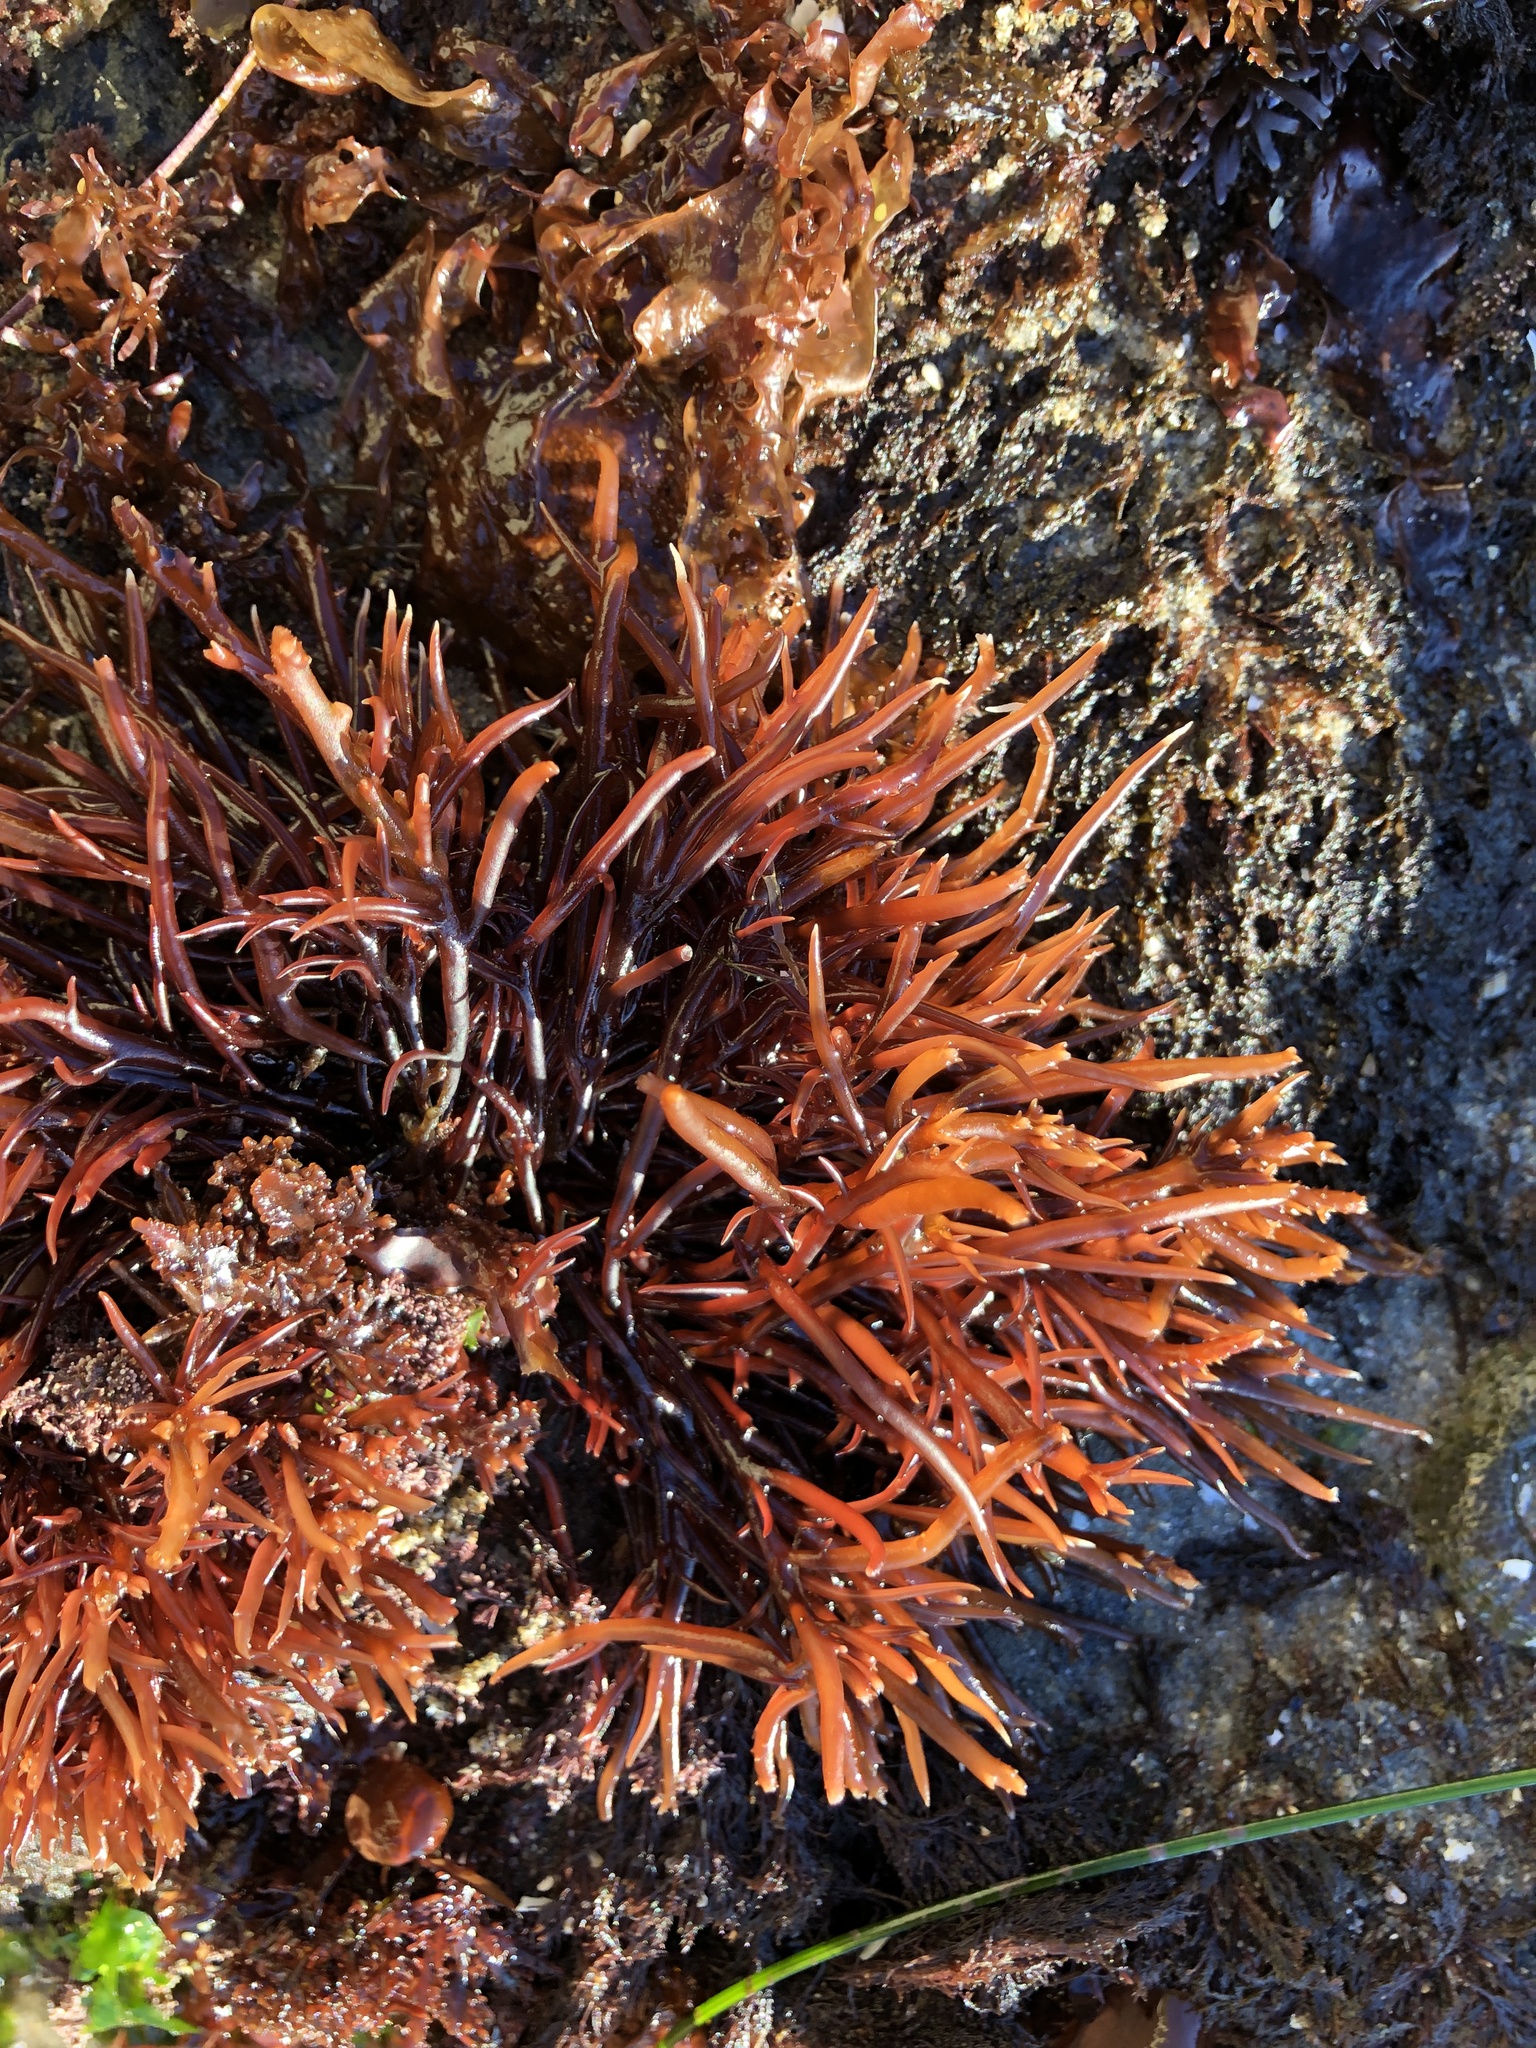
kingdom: Plantae
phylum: Rhodophyta
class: Florideophyceae
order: Gigartinales
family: Solieriaceae
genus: Sarcodiotheca
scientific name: Sarcodiotheca gaudichaudii
